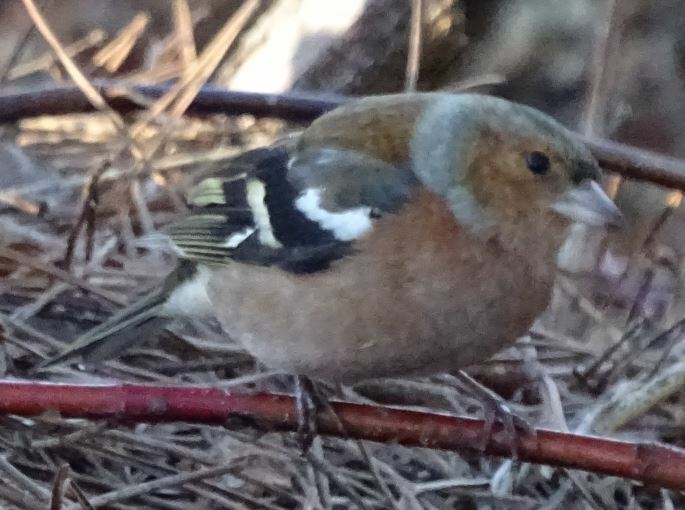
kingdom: Animalia
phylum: Chordata
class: Aves
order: Passeriformes
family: Fringillidae
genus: Fringilla
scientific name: Fringilla coelebs
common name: Common chaffinch
